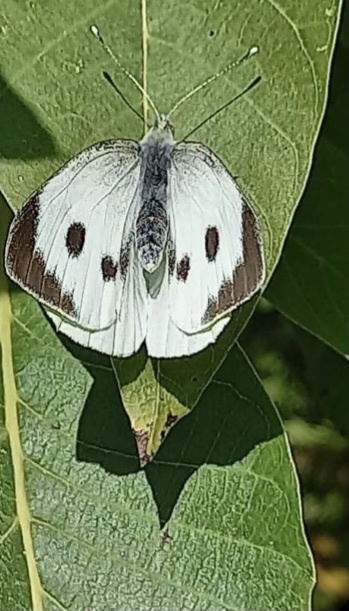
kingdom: Animalia
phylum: Arthropoda
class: Insecta
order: Lepidoptera
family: Pieridae
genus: Pieris
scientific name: Pieris brassicae
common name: Large white
